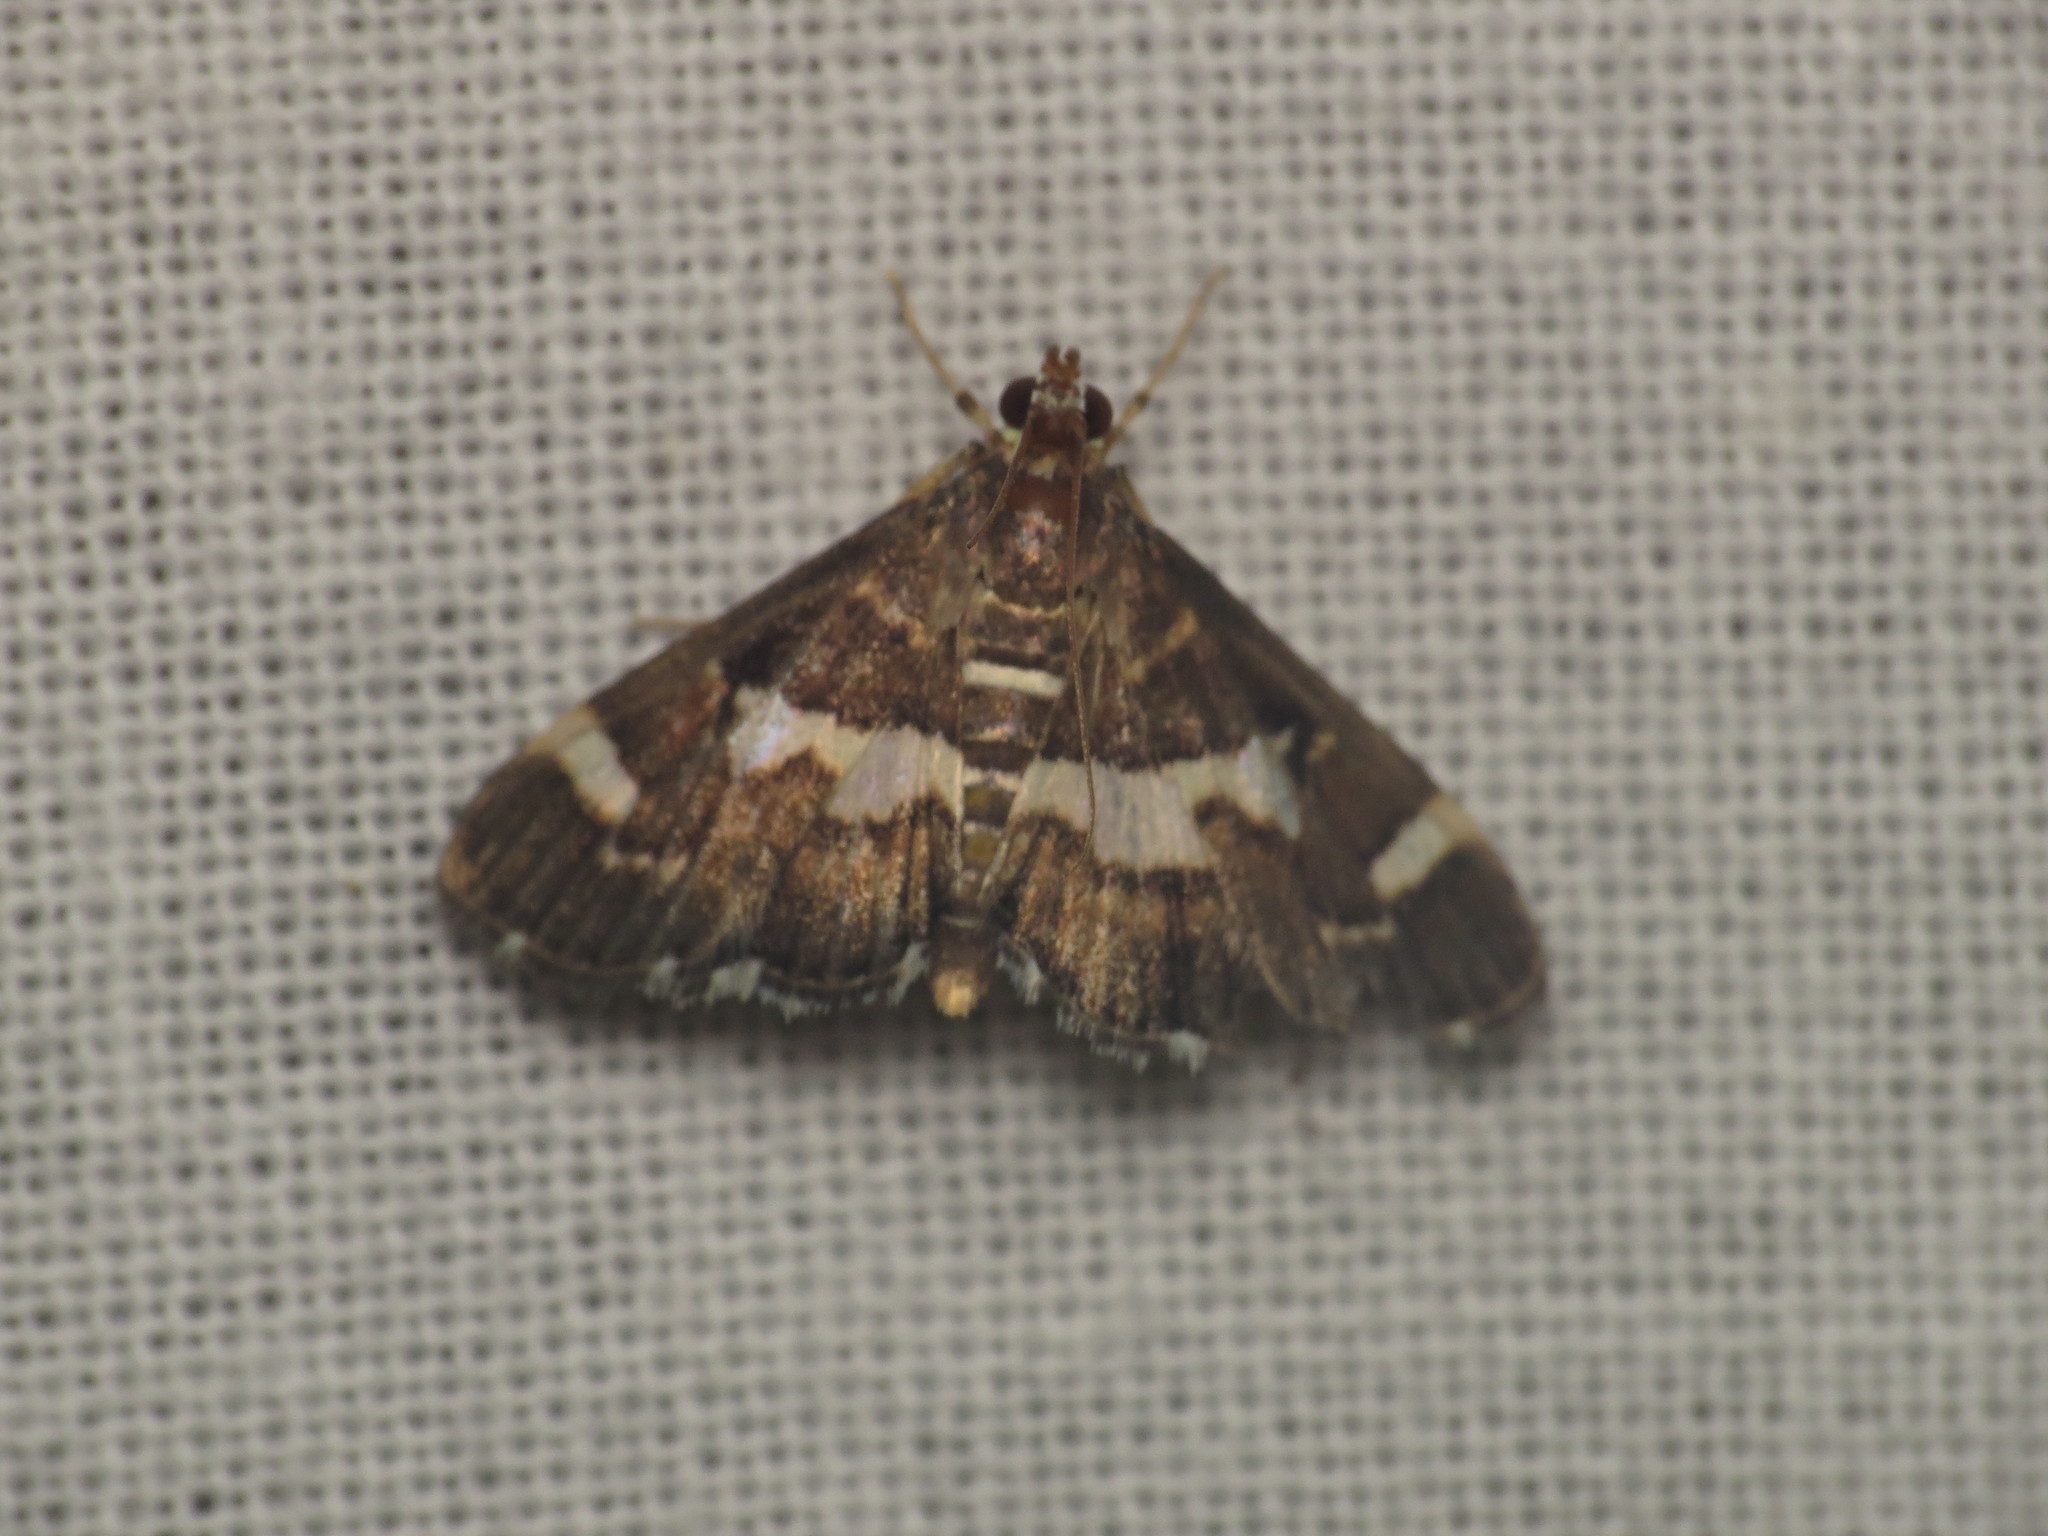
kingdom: Animalia
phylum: Arthropoda
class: Insecta
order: Lepidoptera
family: Crambidae
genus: Spoladea
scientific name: Spoladea recurvalis
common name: Beet webworm moth
